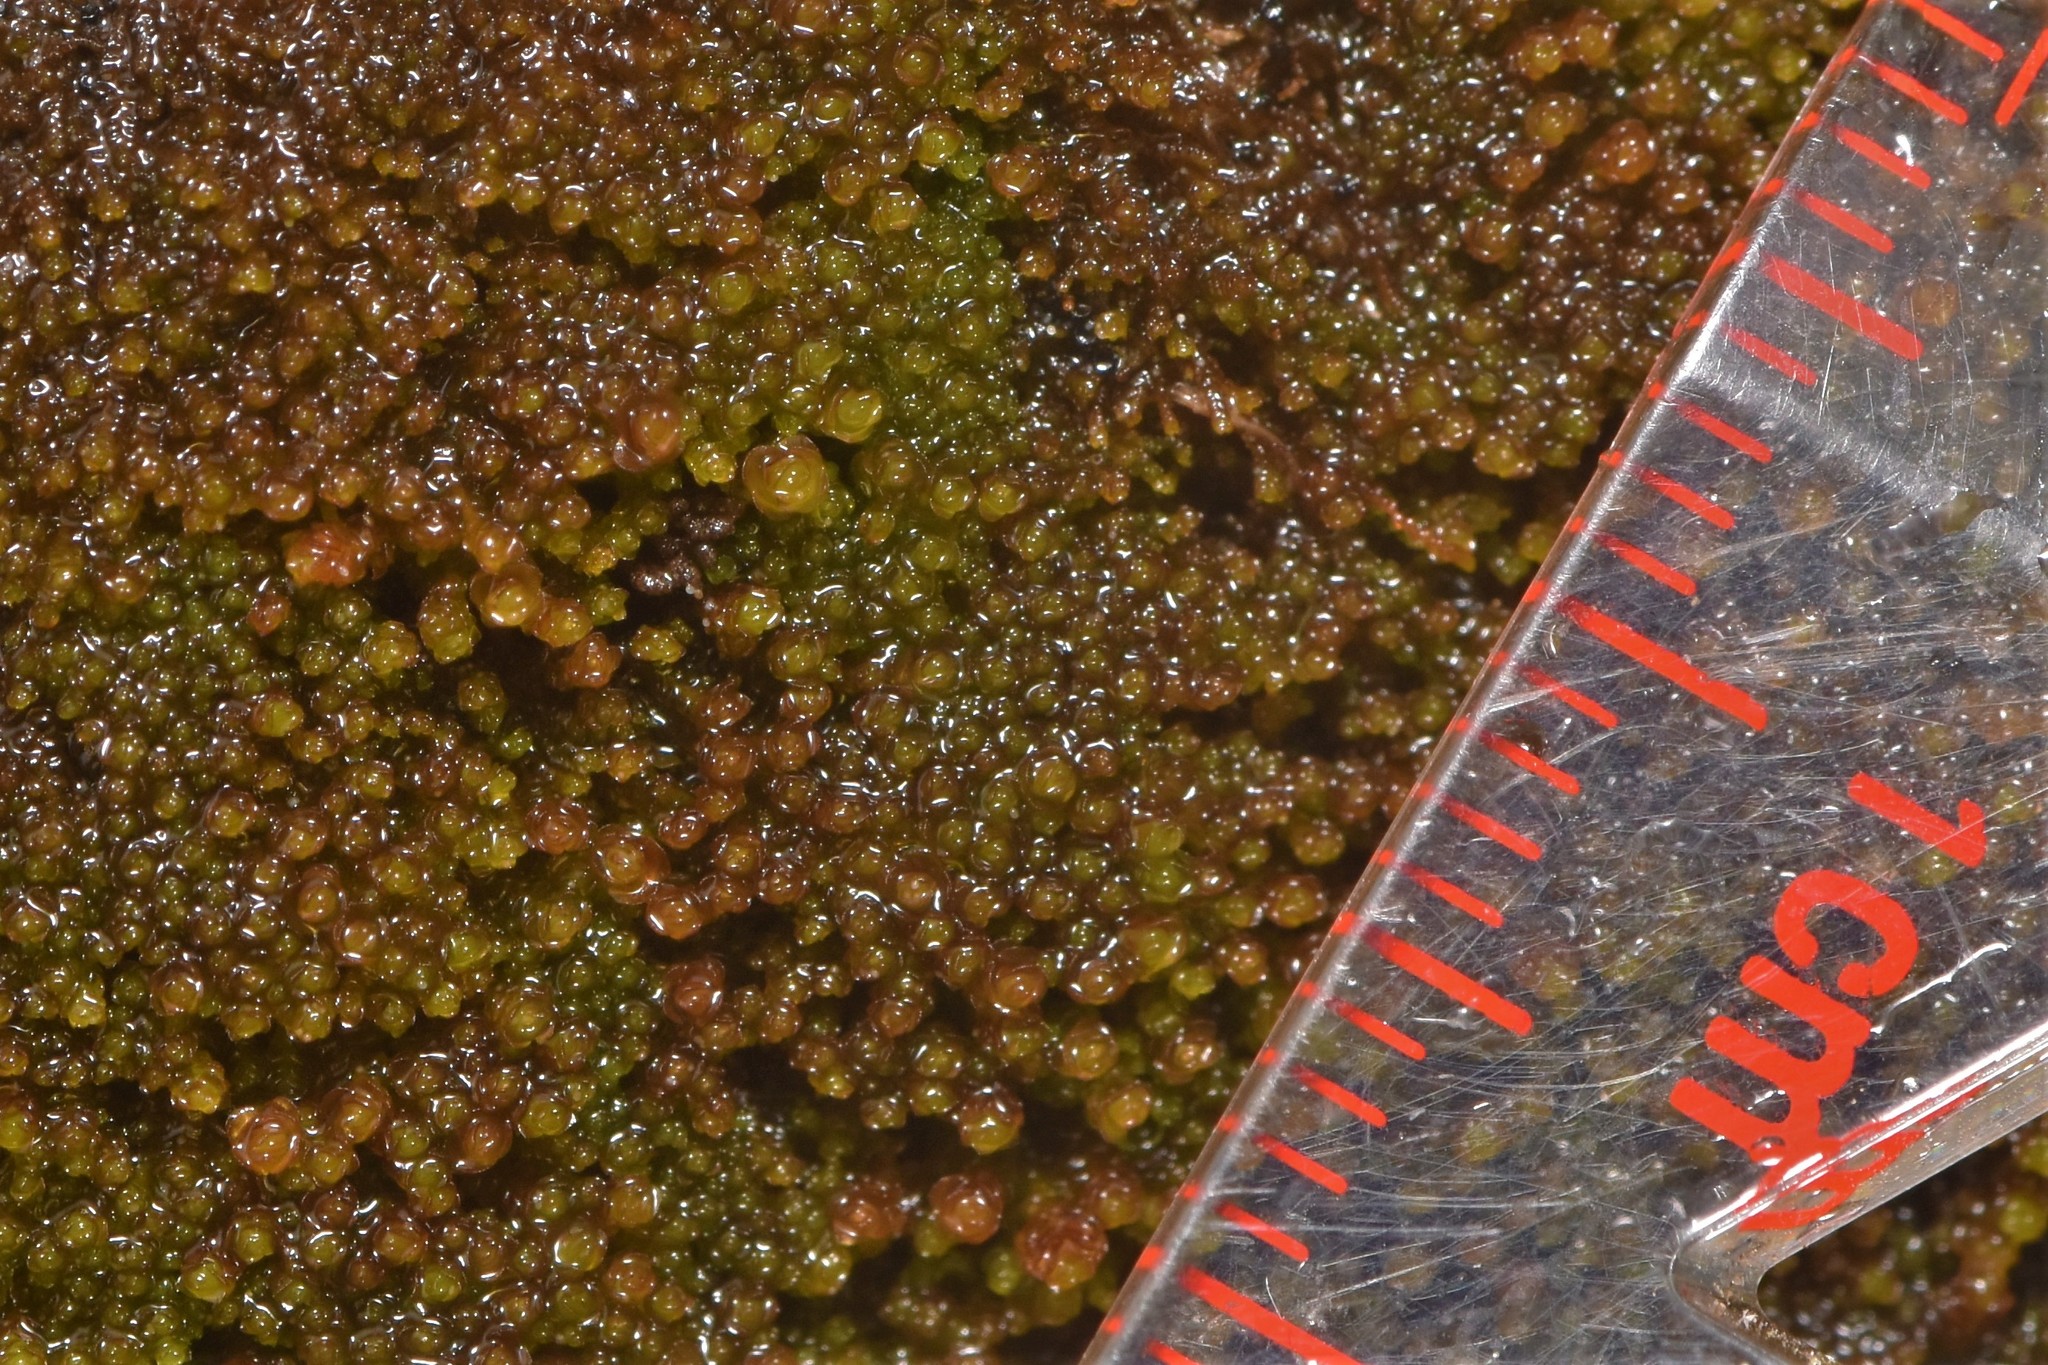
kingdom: Plantae
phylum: Marchantiophyta
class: Jungermanniopsida
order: Jungermanniales
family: Gymnomitriaceae
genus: Marsupella
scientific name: Marsupella emarginata
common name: Notched rustwort
